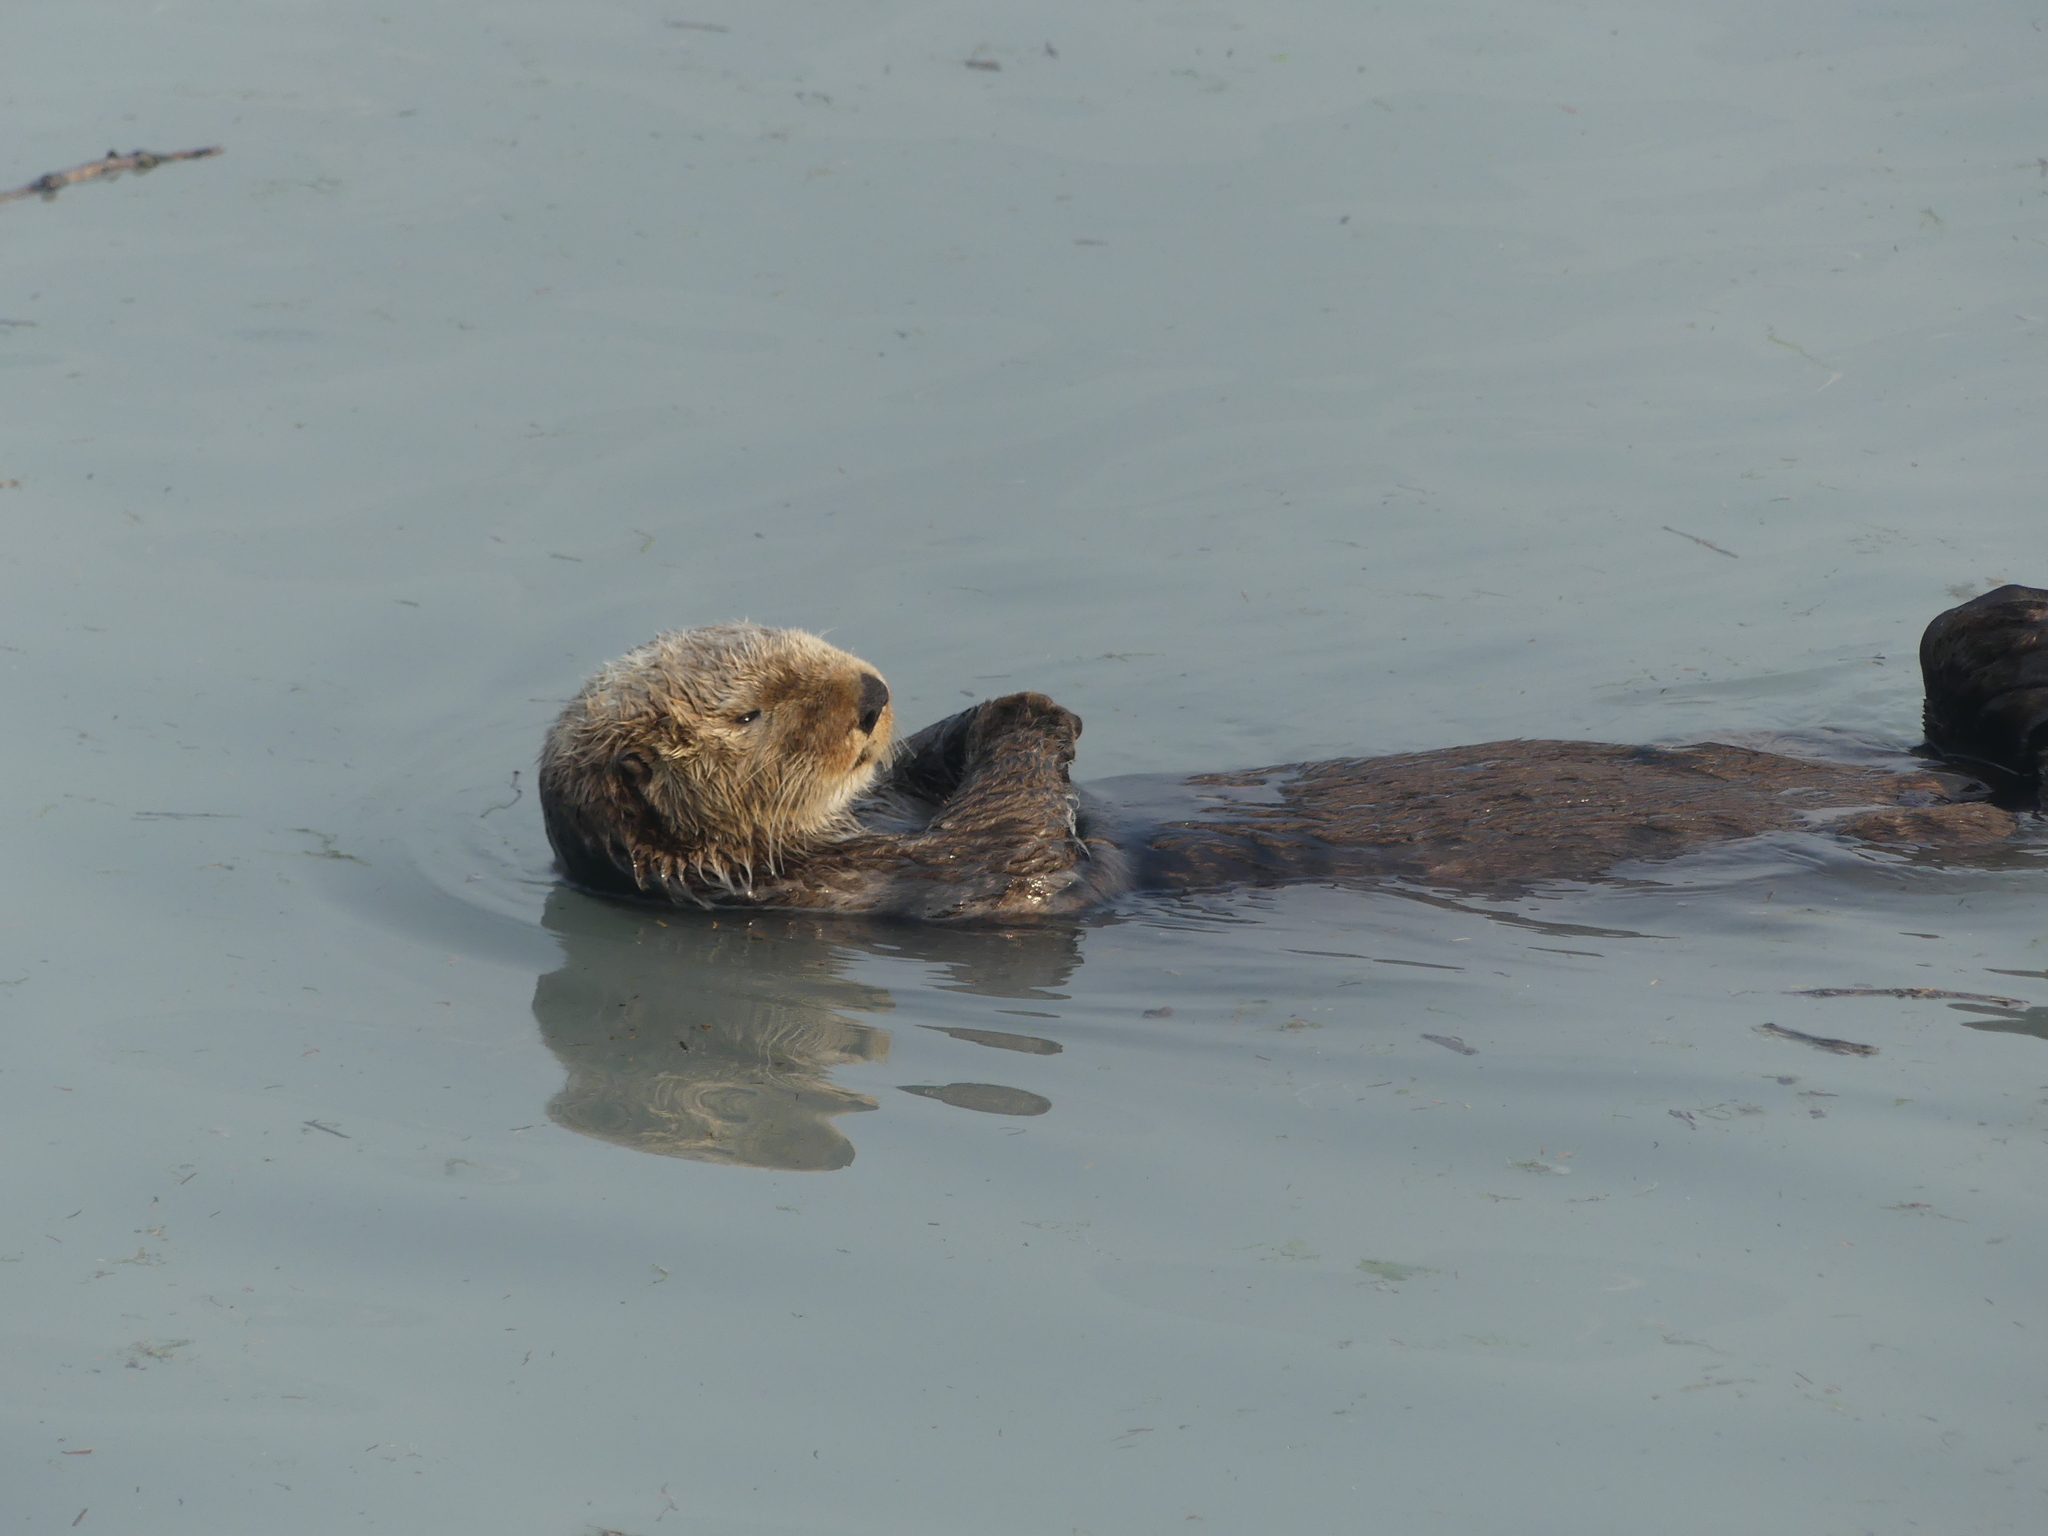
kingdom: Animalia
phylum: Chordata
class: Mammalia
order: Carnivora
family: Mustelidae
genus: Enhydra
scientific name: Enhydra lutris
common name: Sea otter
